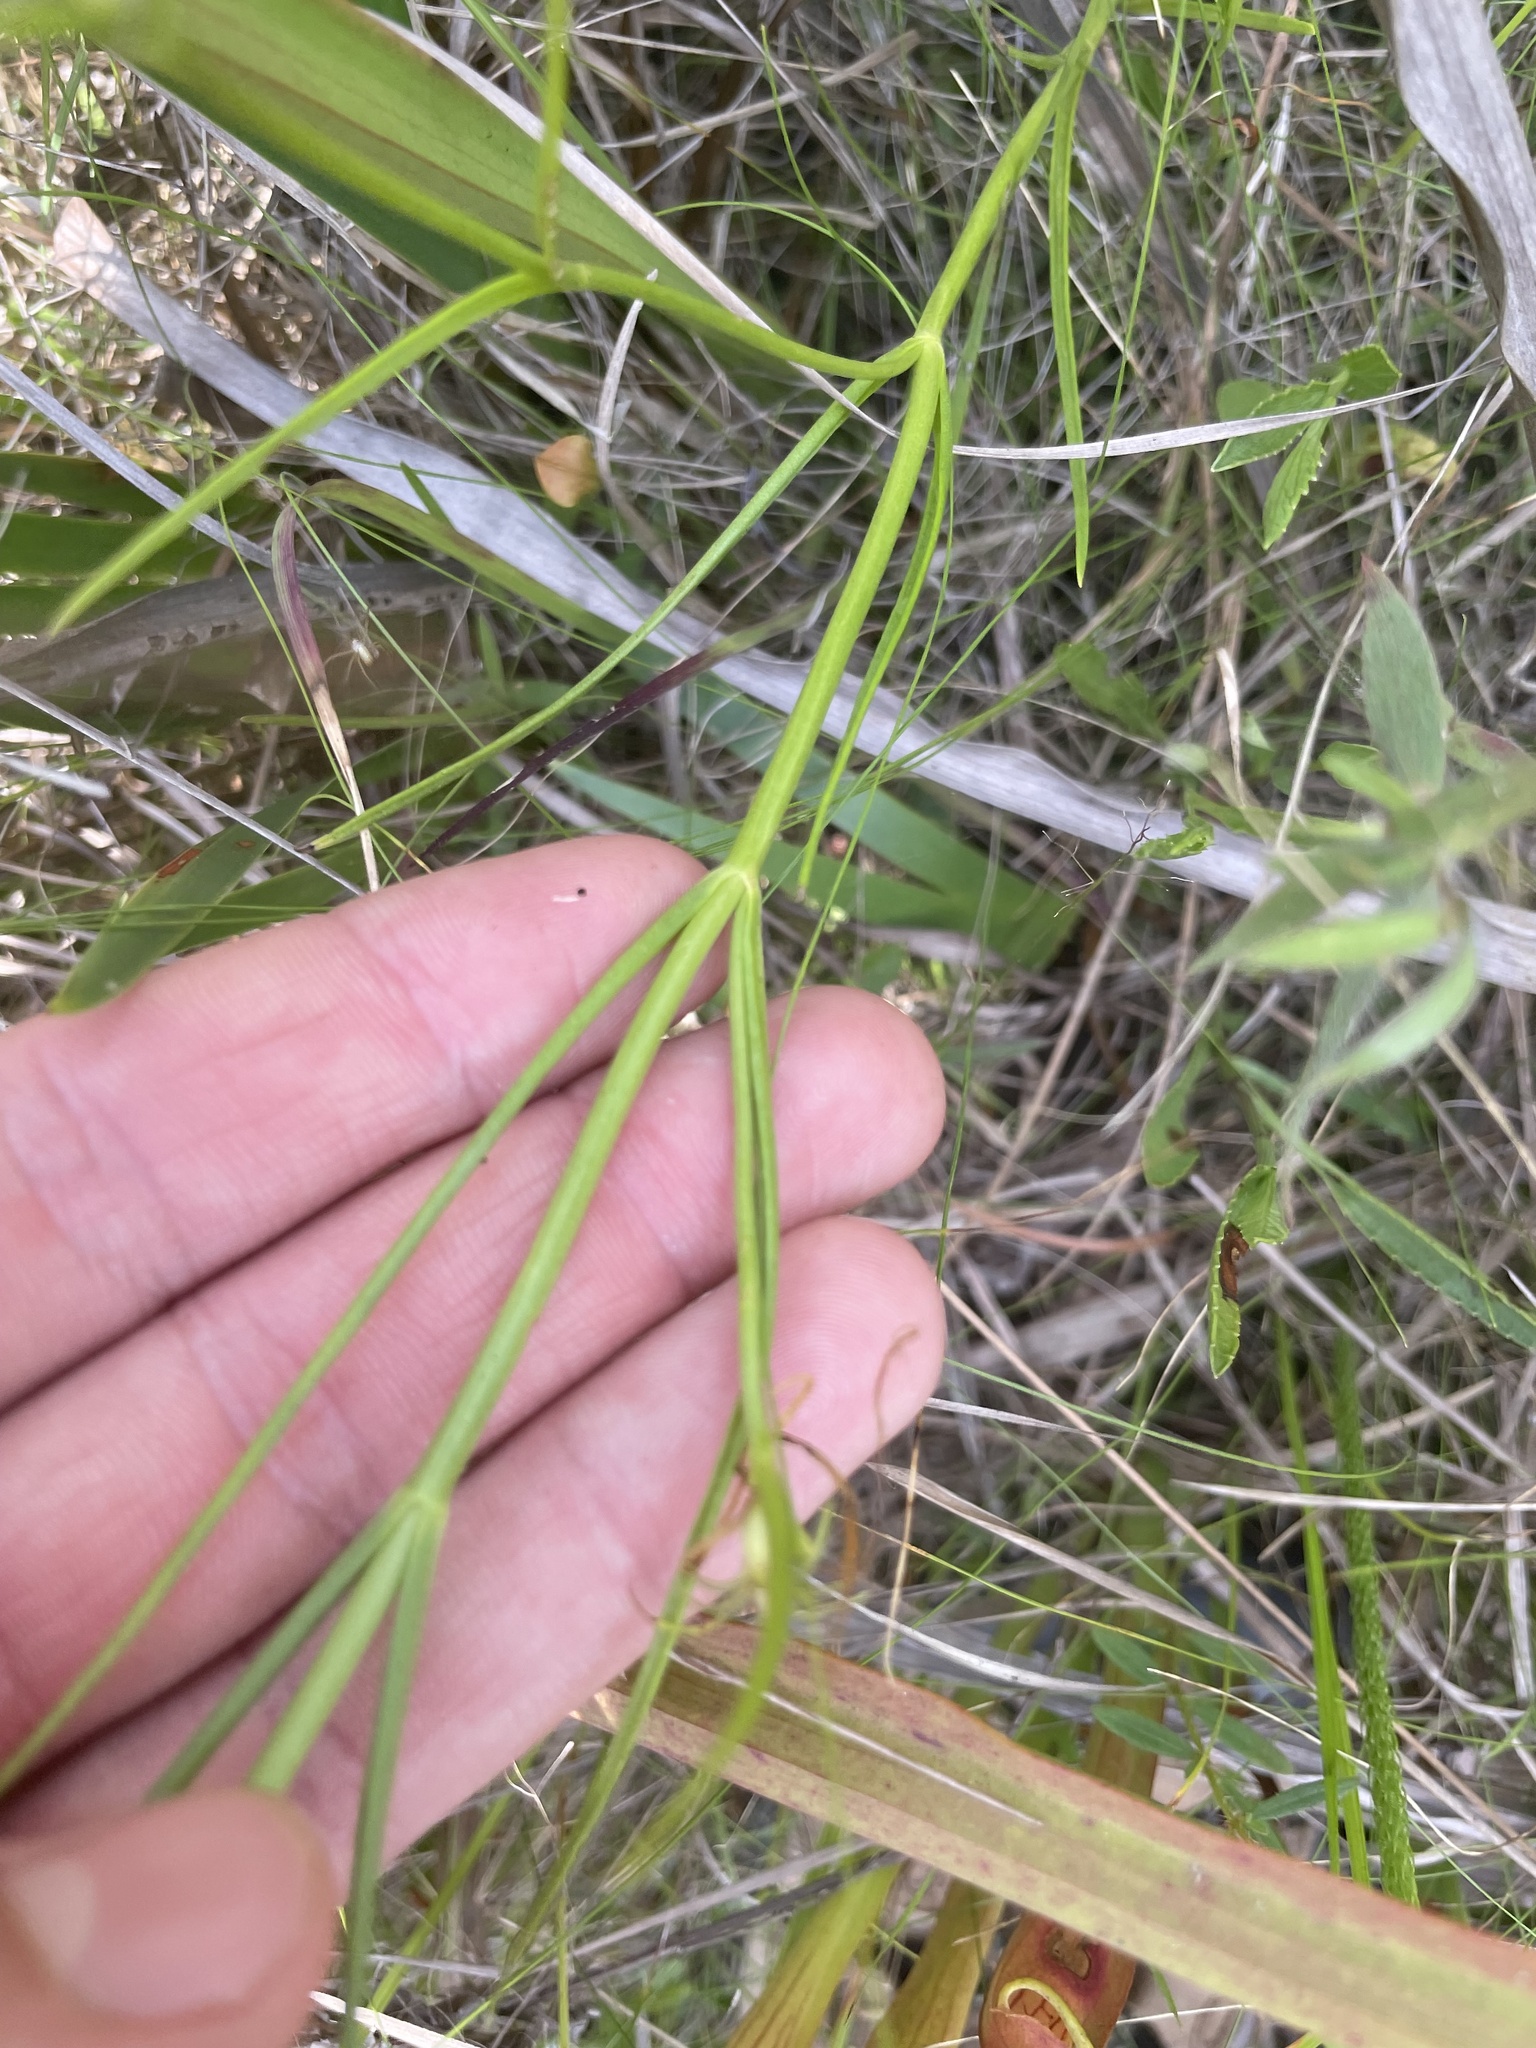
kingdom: Plantae
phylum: Tracheophyta
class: Magnoliopsida
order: Gentianales
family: Gentianaceae
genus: Sabatia
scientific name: Sabatia gentianoides
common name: Pinewoods rose-gentian
